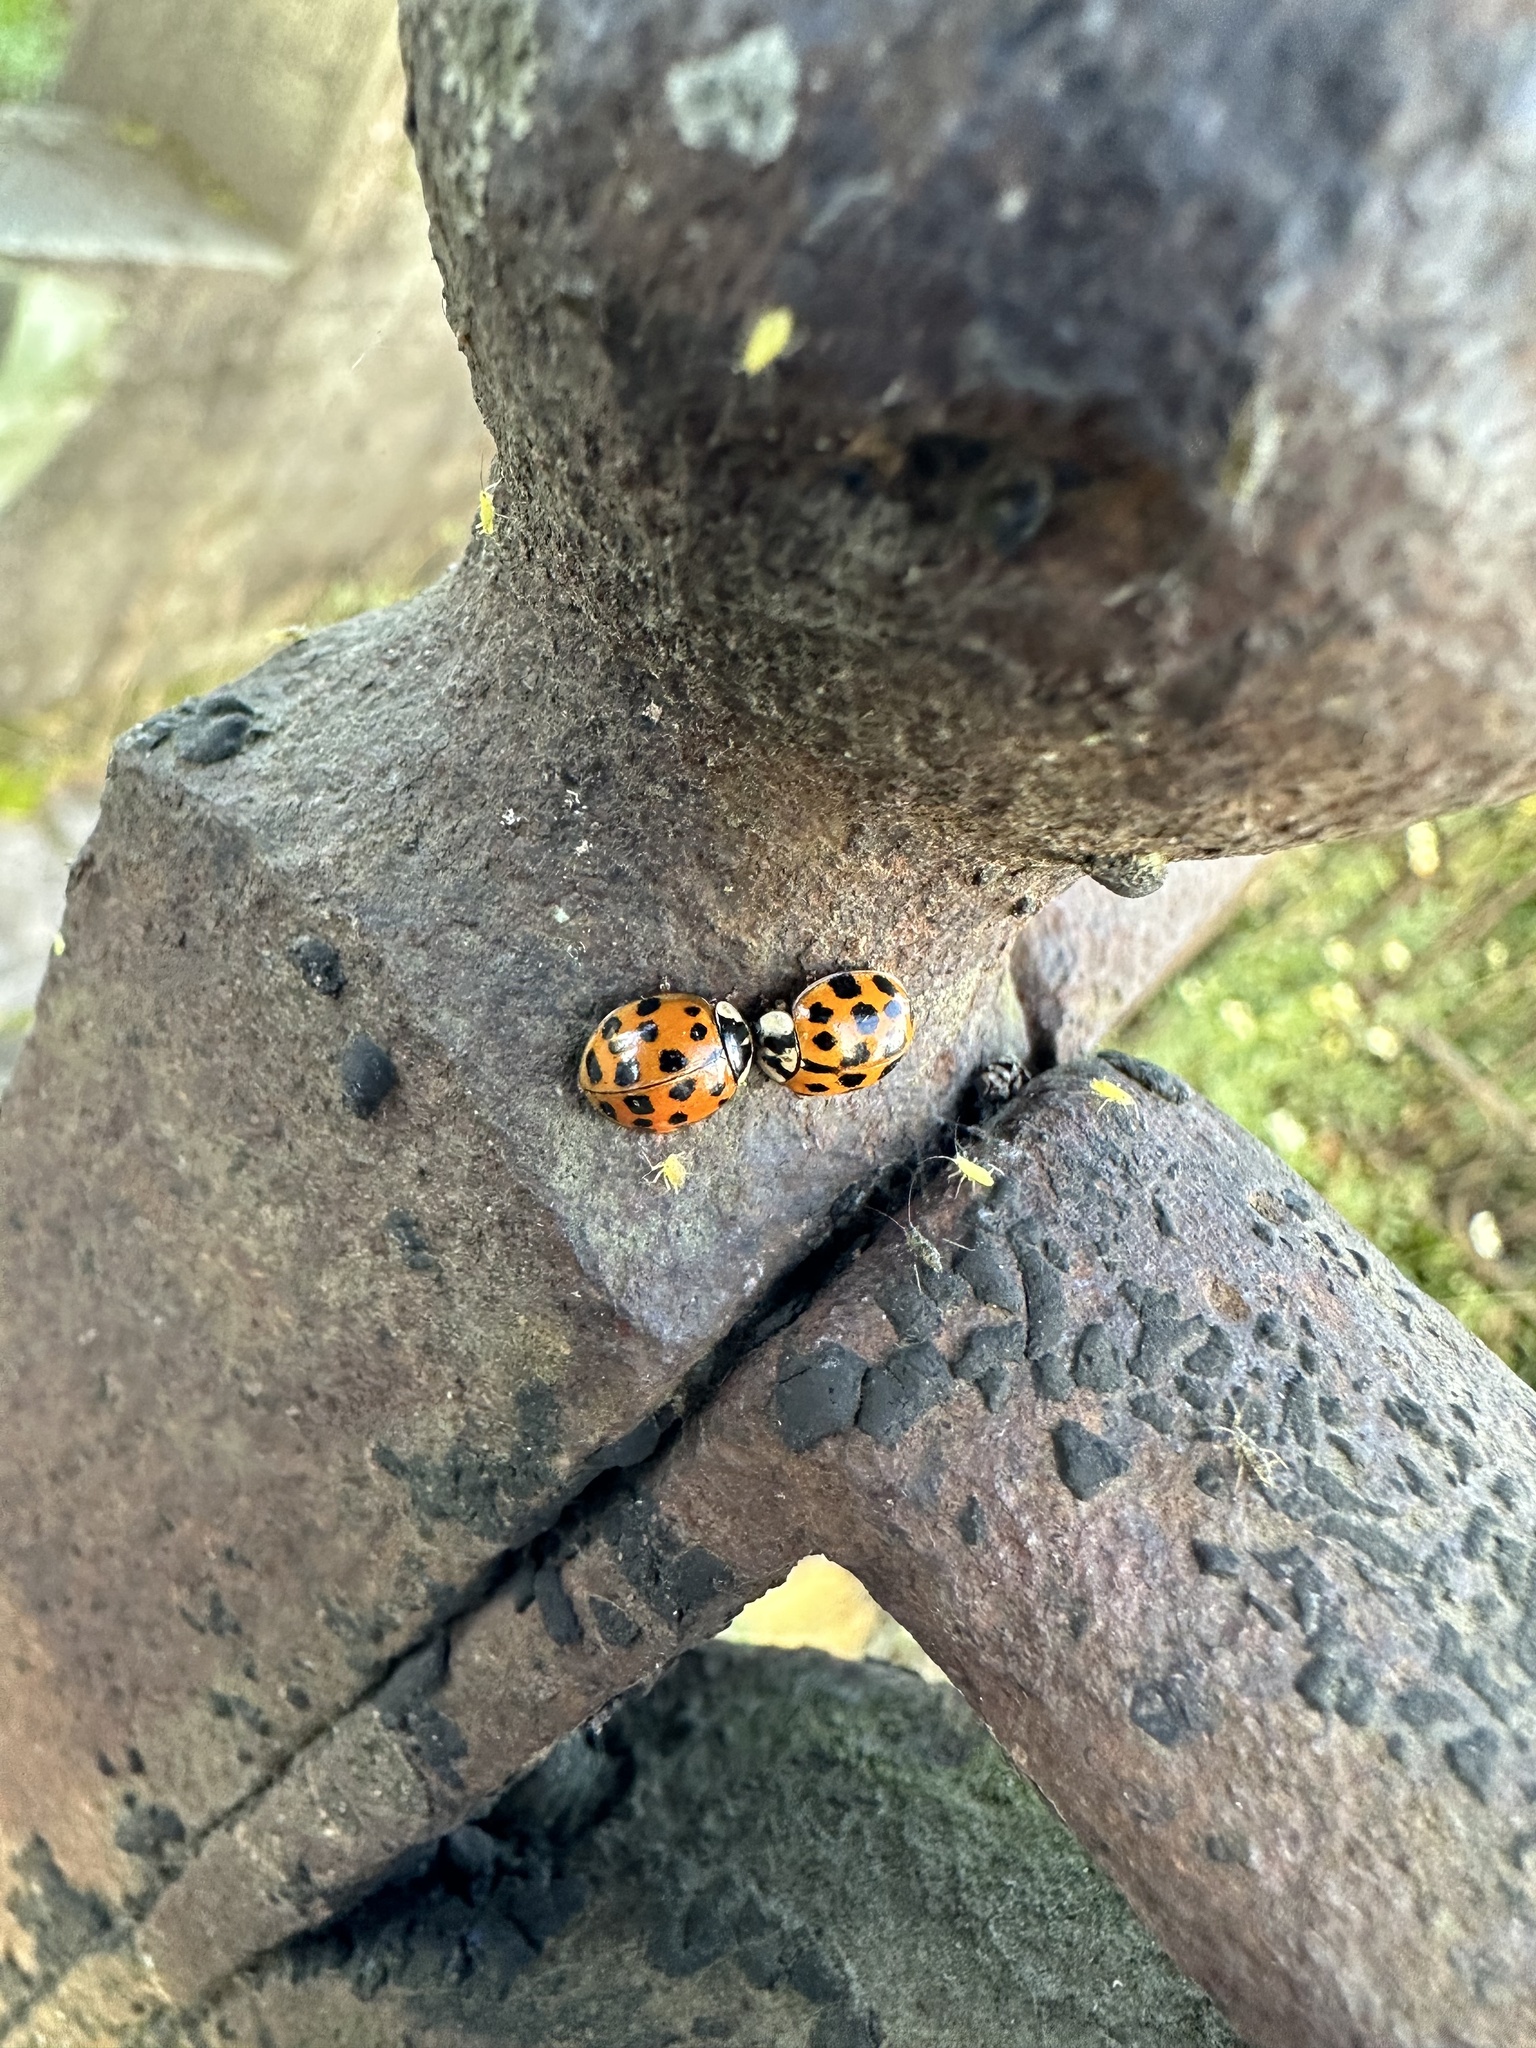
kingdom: Animalia
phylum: Arthropoda
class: Insecta
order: Coleoptera
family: Coccinellidae
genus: Harmonia
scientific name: Harmonia axyridis
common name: Harlequin ladybird
